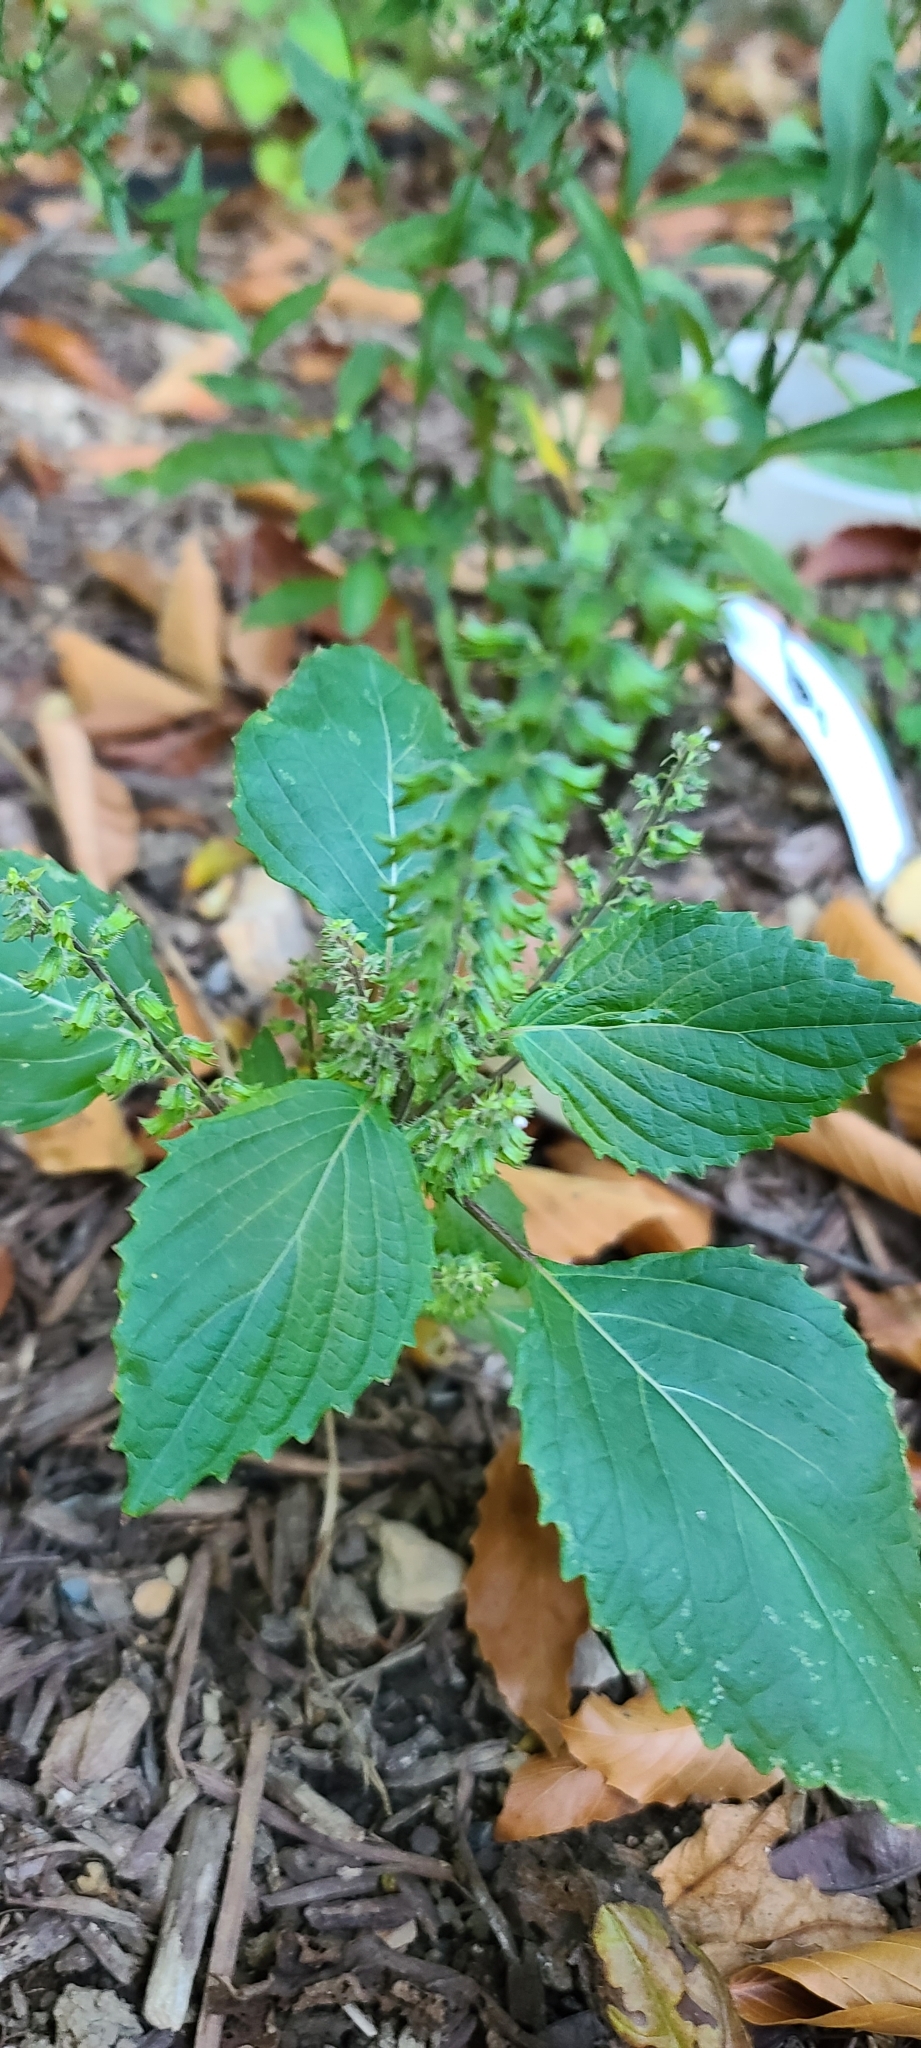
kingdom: Plantae
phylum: Tracheophyta
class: Magnoliopsida
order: Lamiales
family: Lamiaceae
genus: Perilla
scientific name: Perilla frutescens
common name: Perilla
